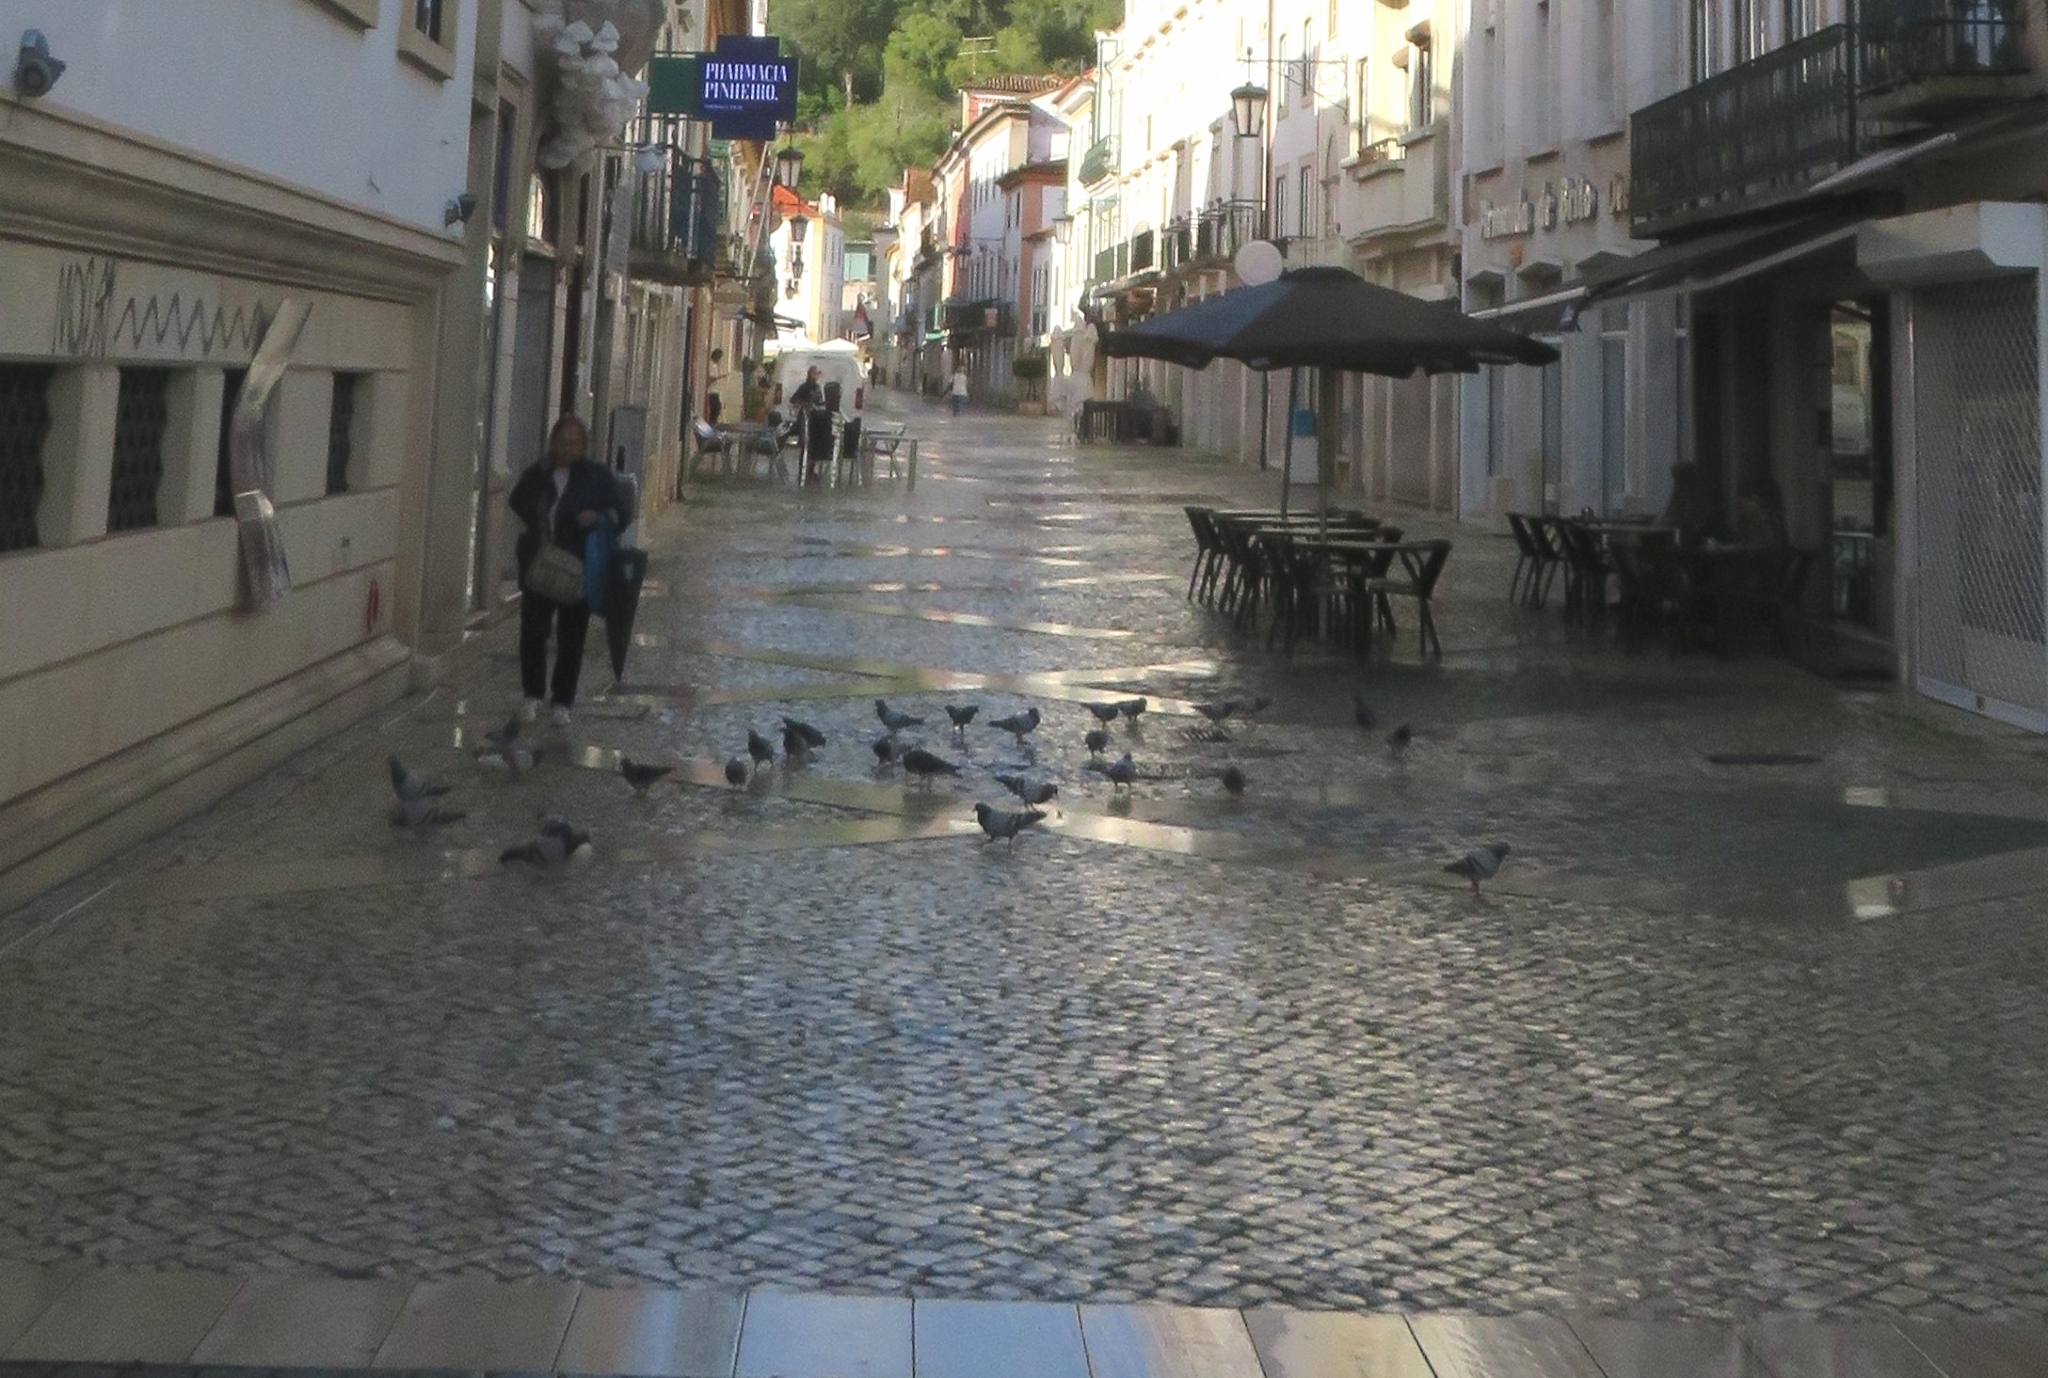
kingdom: Animalia
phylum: Chordata
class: Aves
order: Columbiformes
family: Columbidae
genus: Columba
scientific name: Columba livia
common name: Rock pigeon
